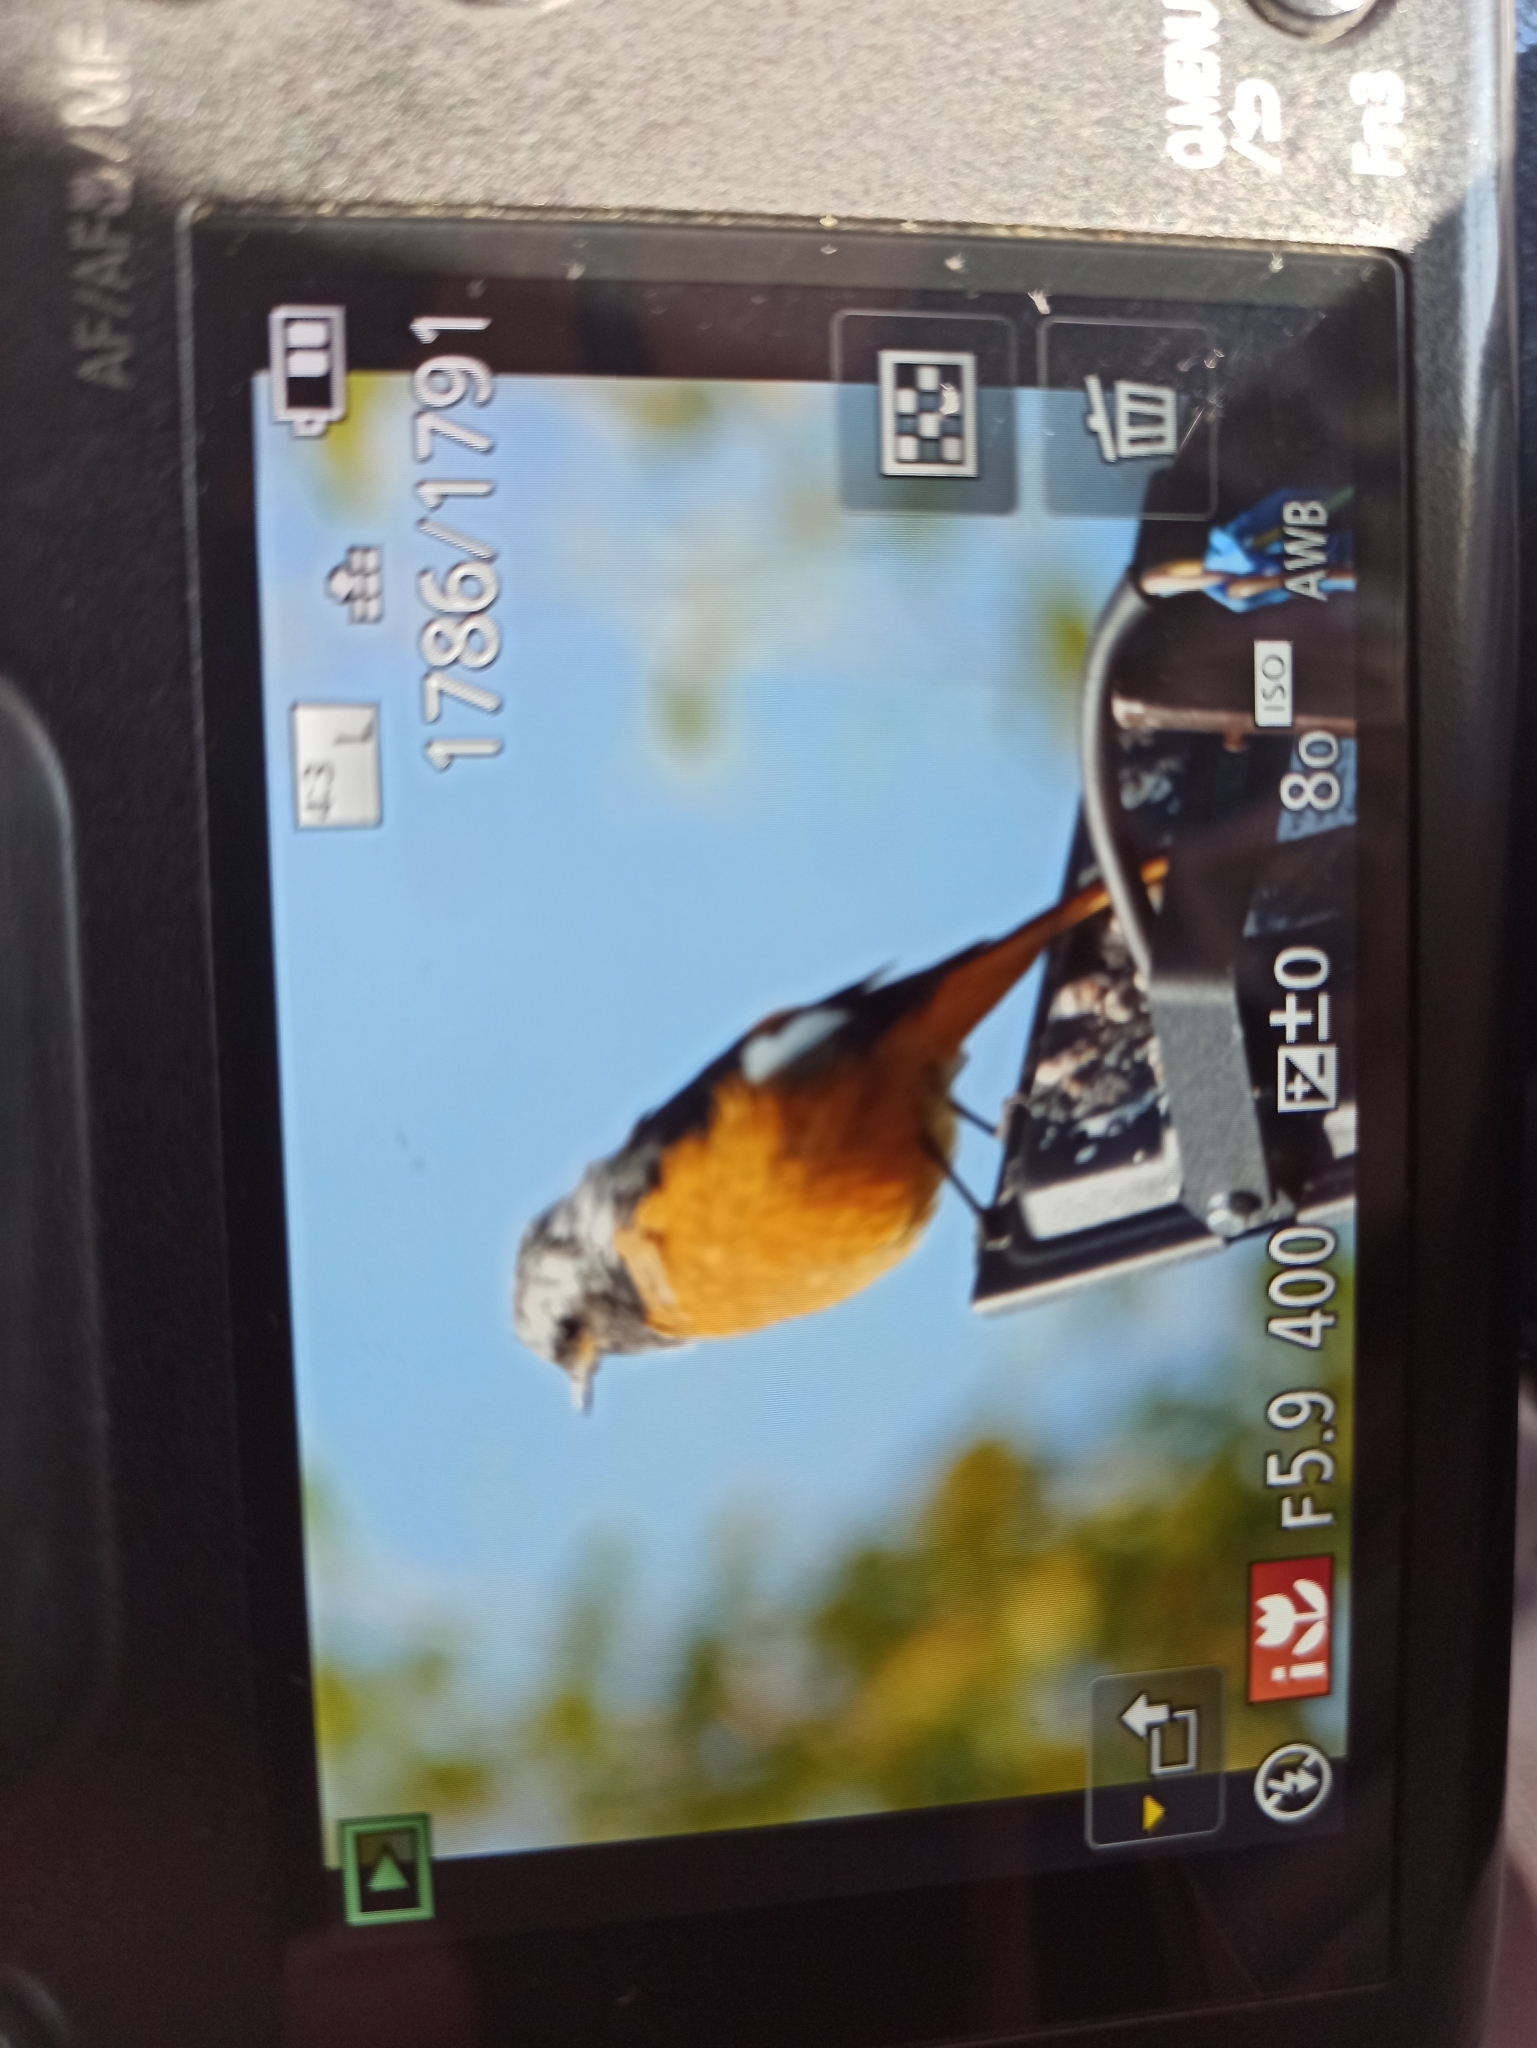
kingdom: Animalia
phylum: Chordata
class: Aves
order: Passeriformes
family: Muscicapidae
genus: Phoenicurus
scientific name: Phoenicurus auroreus
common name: Daurian redstart
